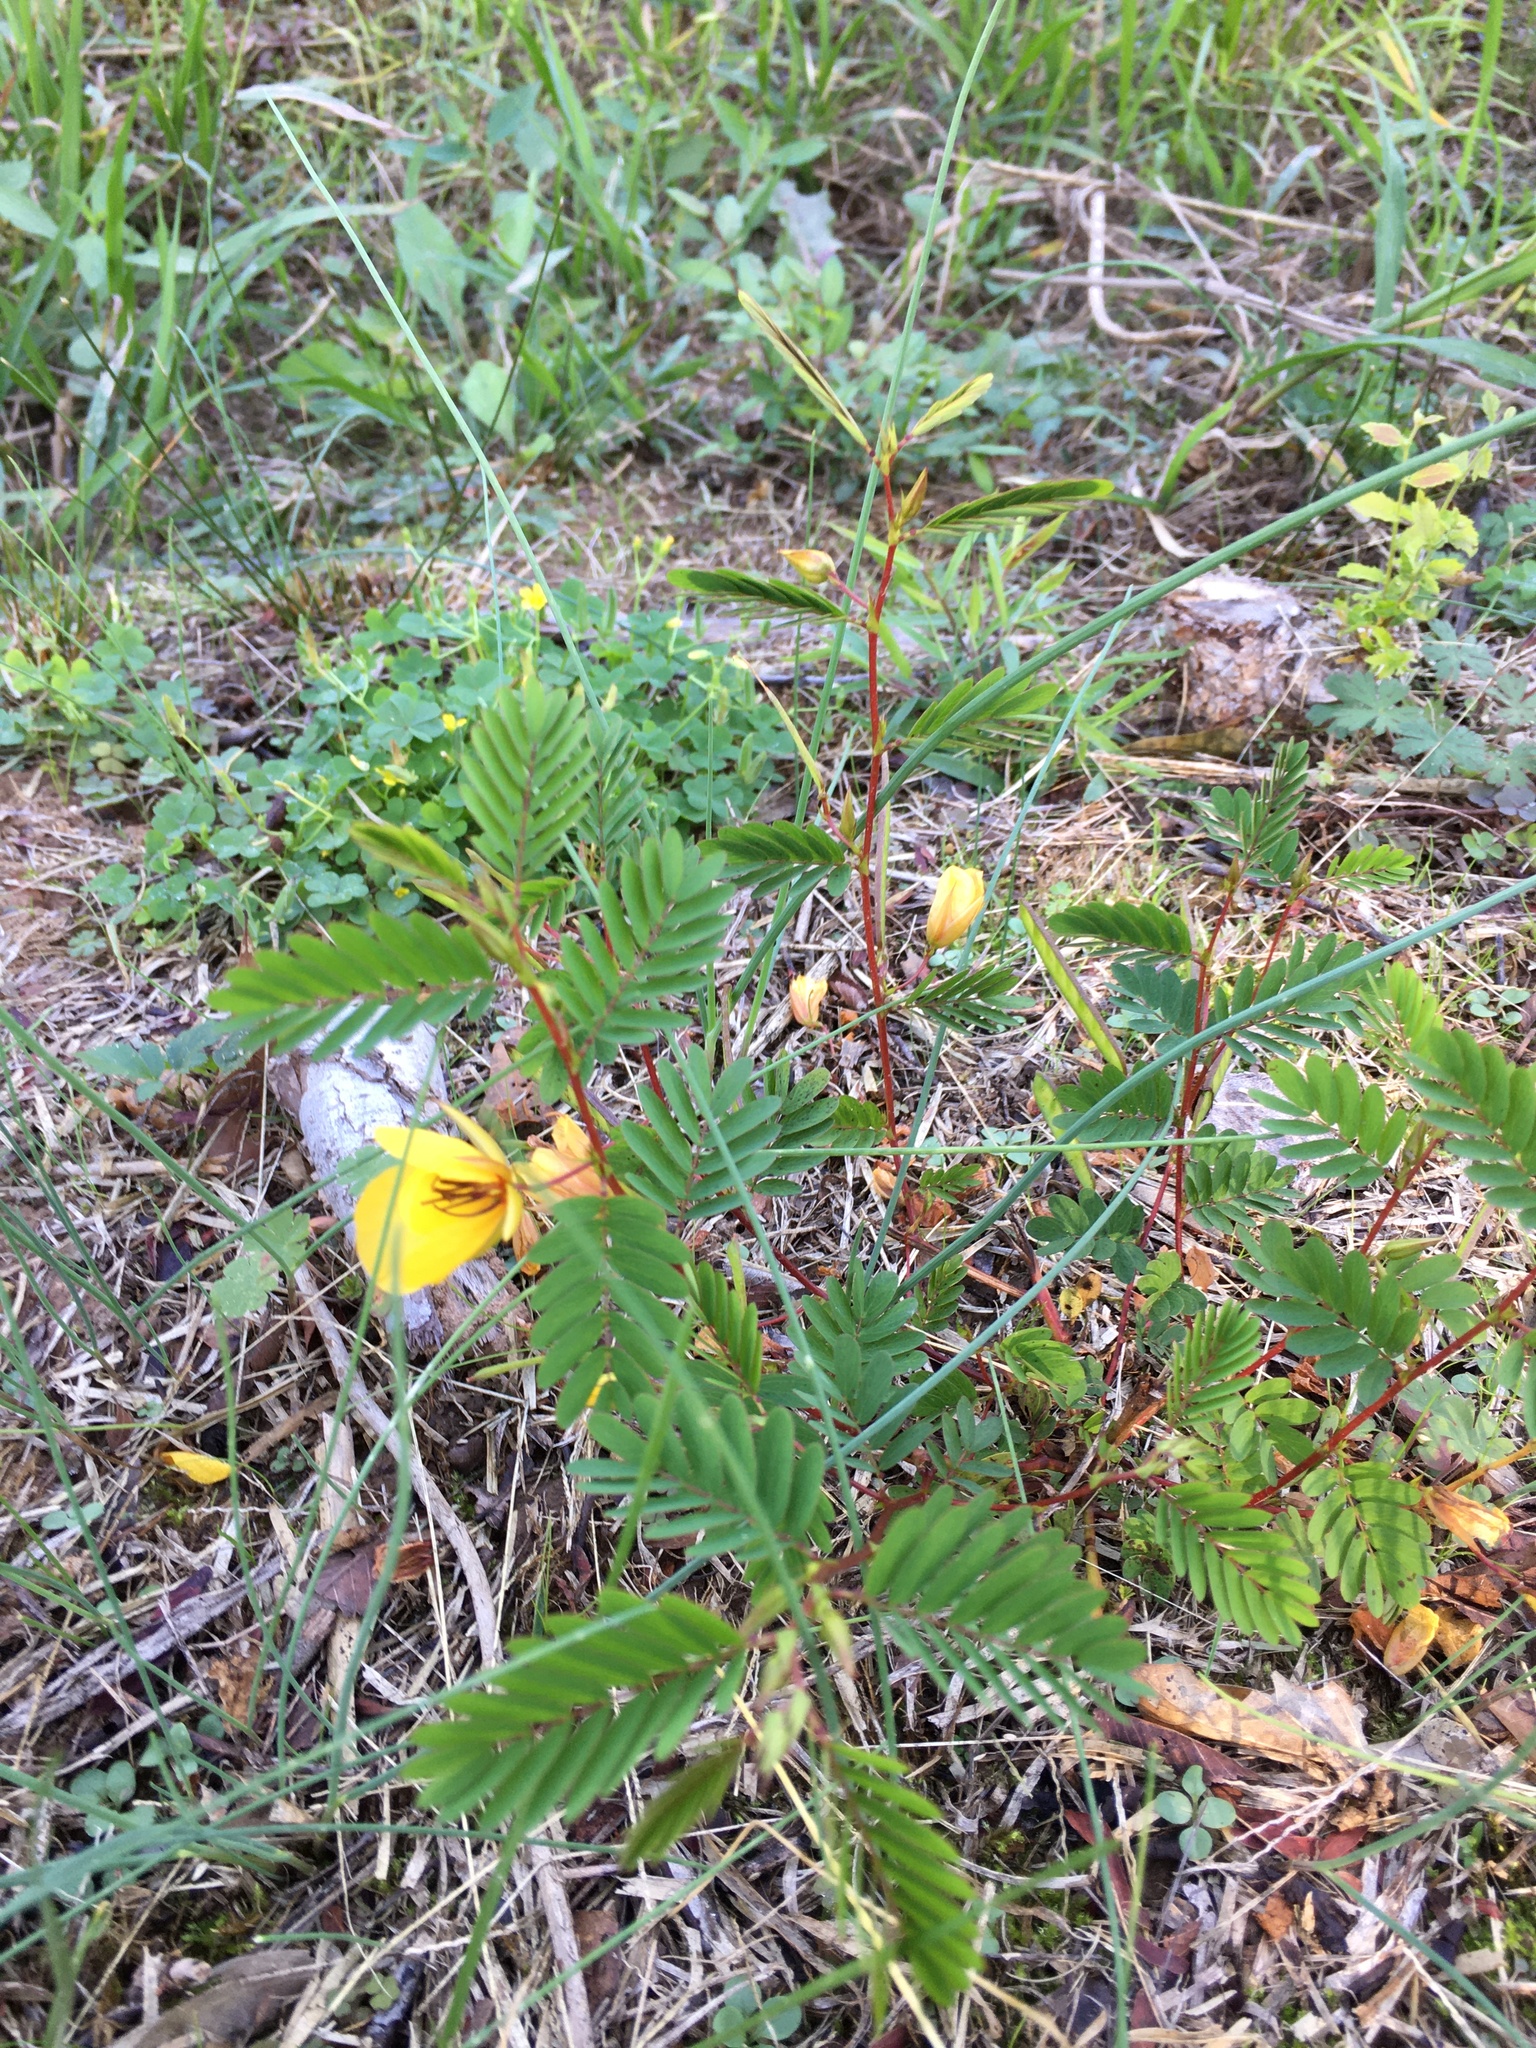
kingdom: Plantae
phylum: Tracheophyta
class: Magnoliopsida
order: Fabales
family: Fabaceae
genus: Chamaecrista
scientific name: Chamaecrista fasciculata
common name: Golden cassia
